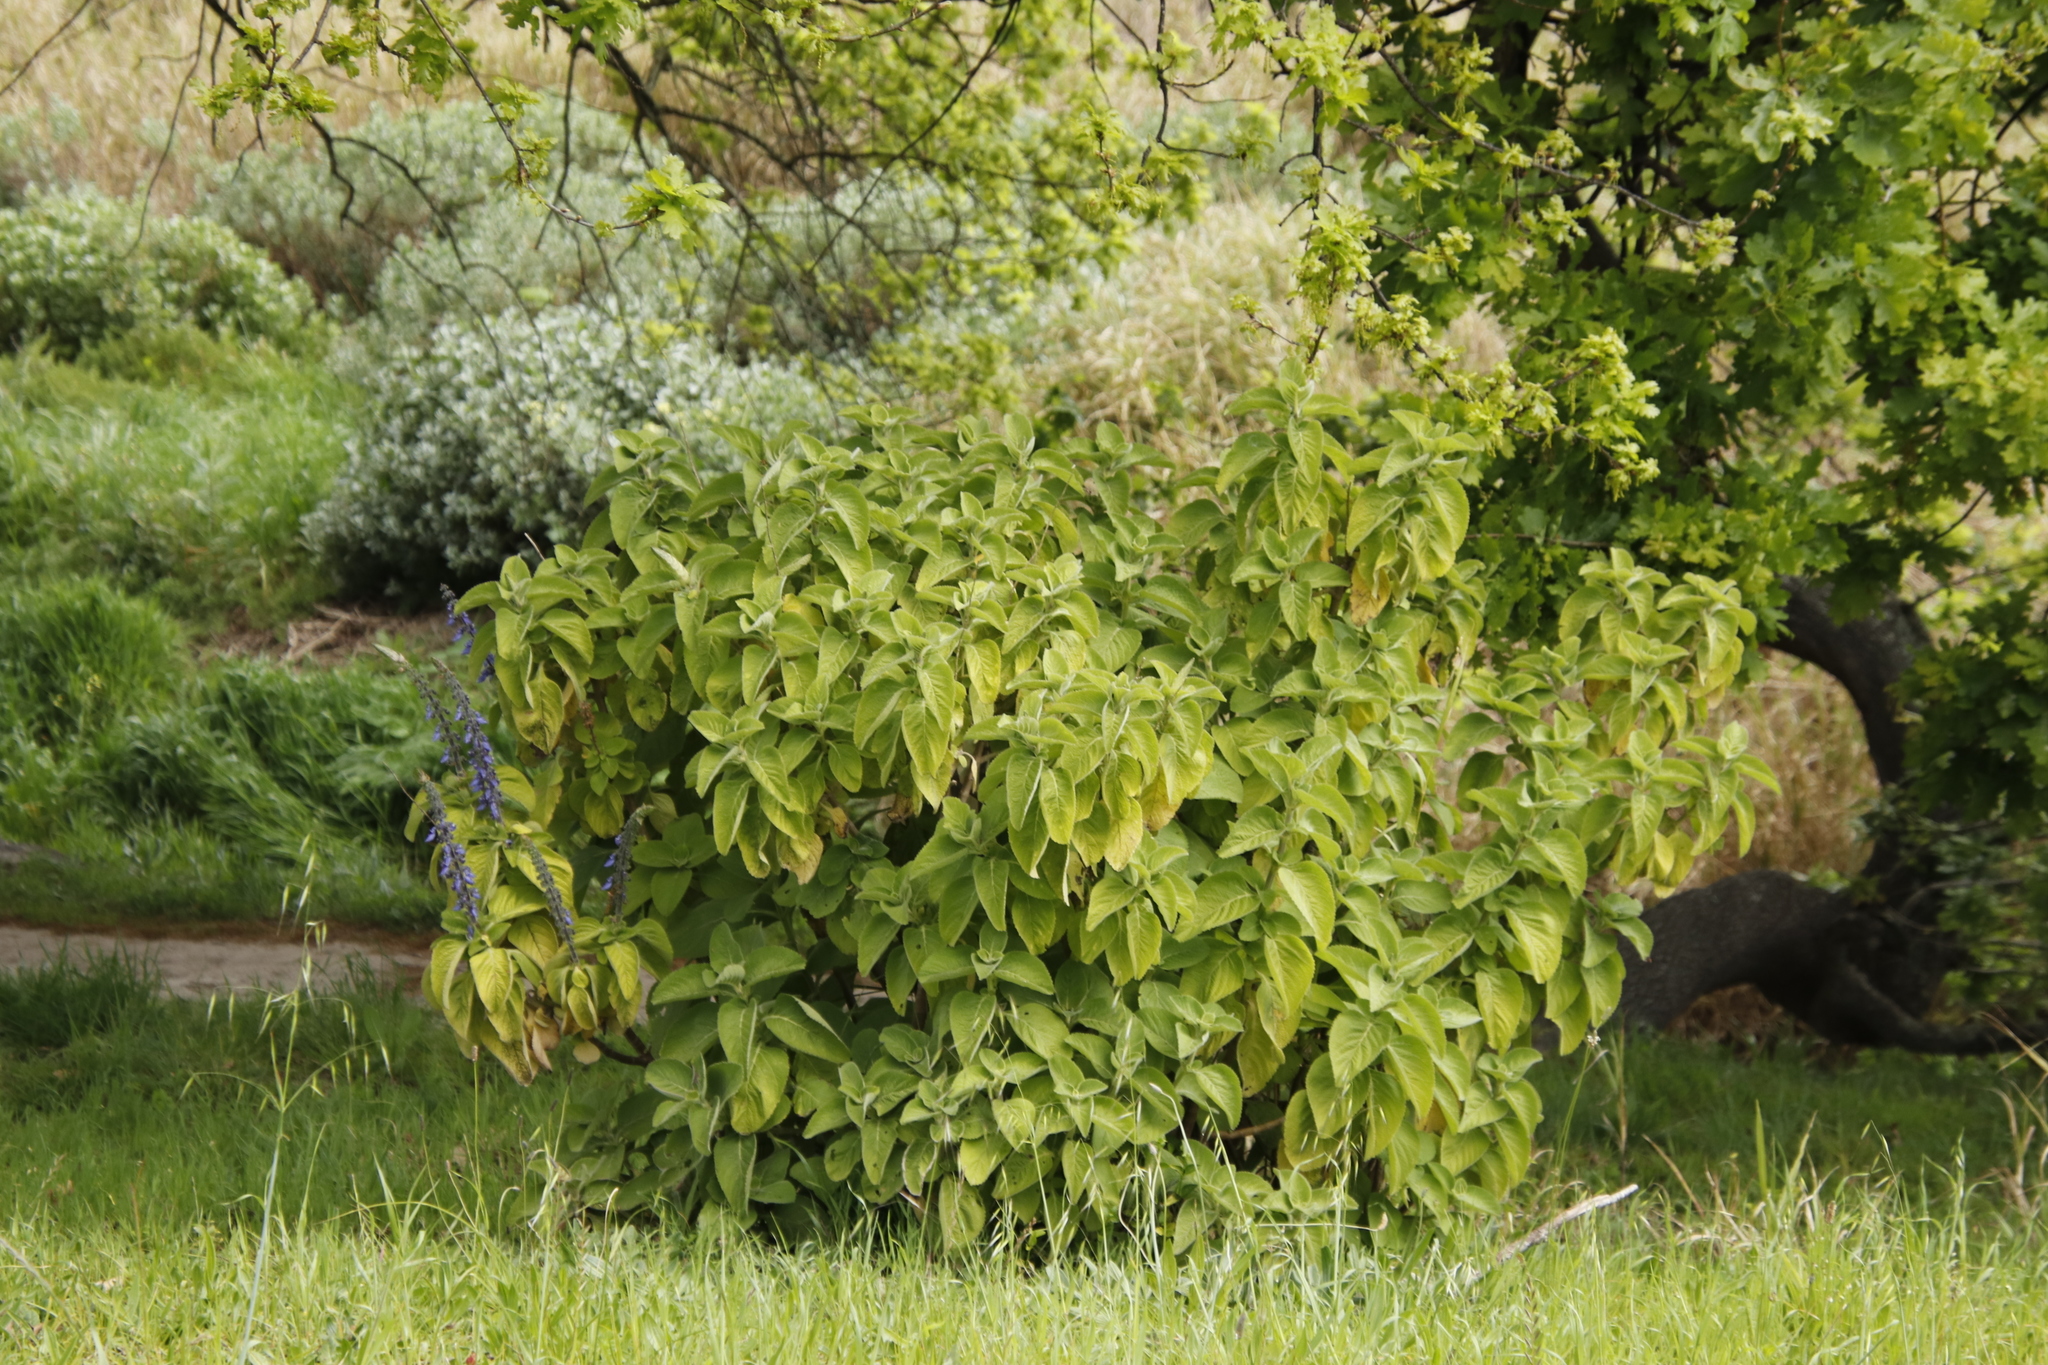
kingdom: Plantae
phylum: Tracheophyta
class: Magnoliopsida
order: Lamiales
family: Lamiaceae
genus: Coleus
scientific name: Coleus barbatus
